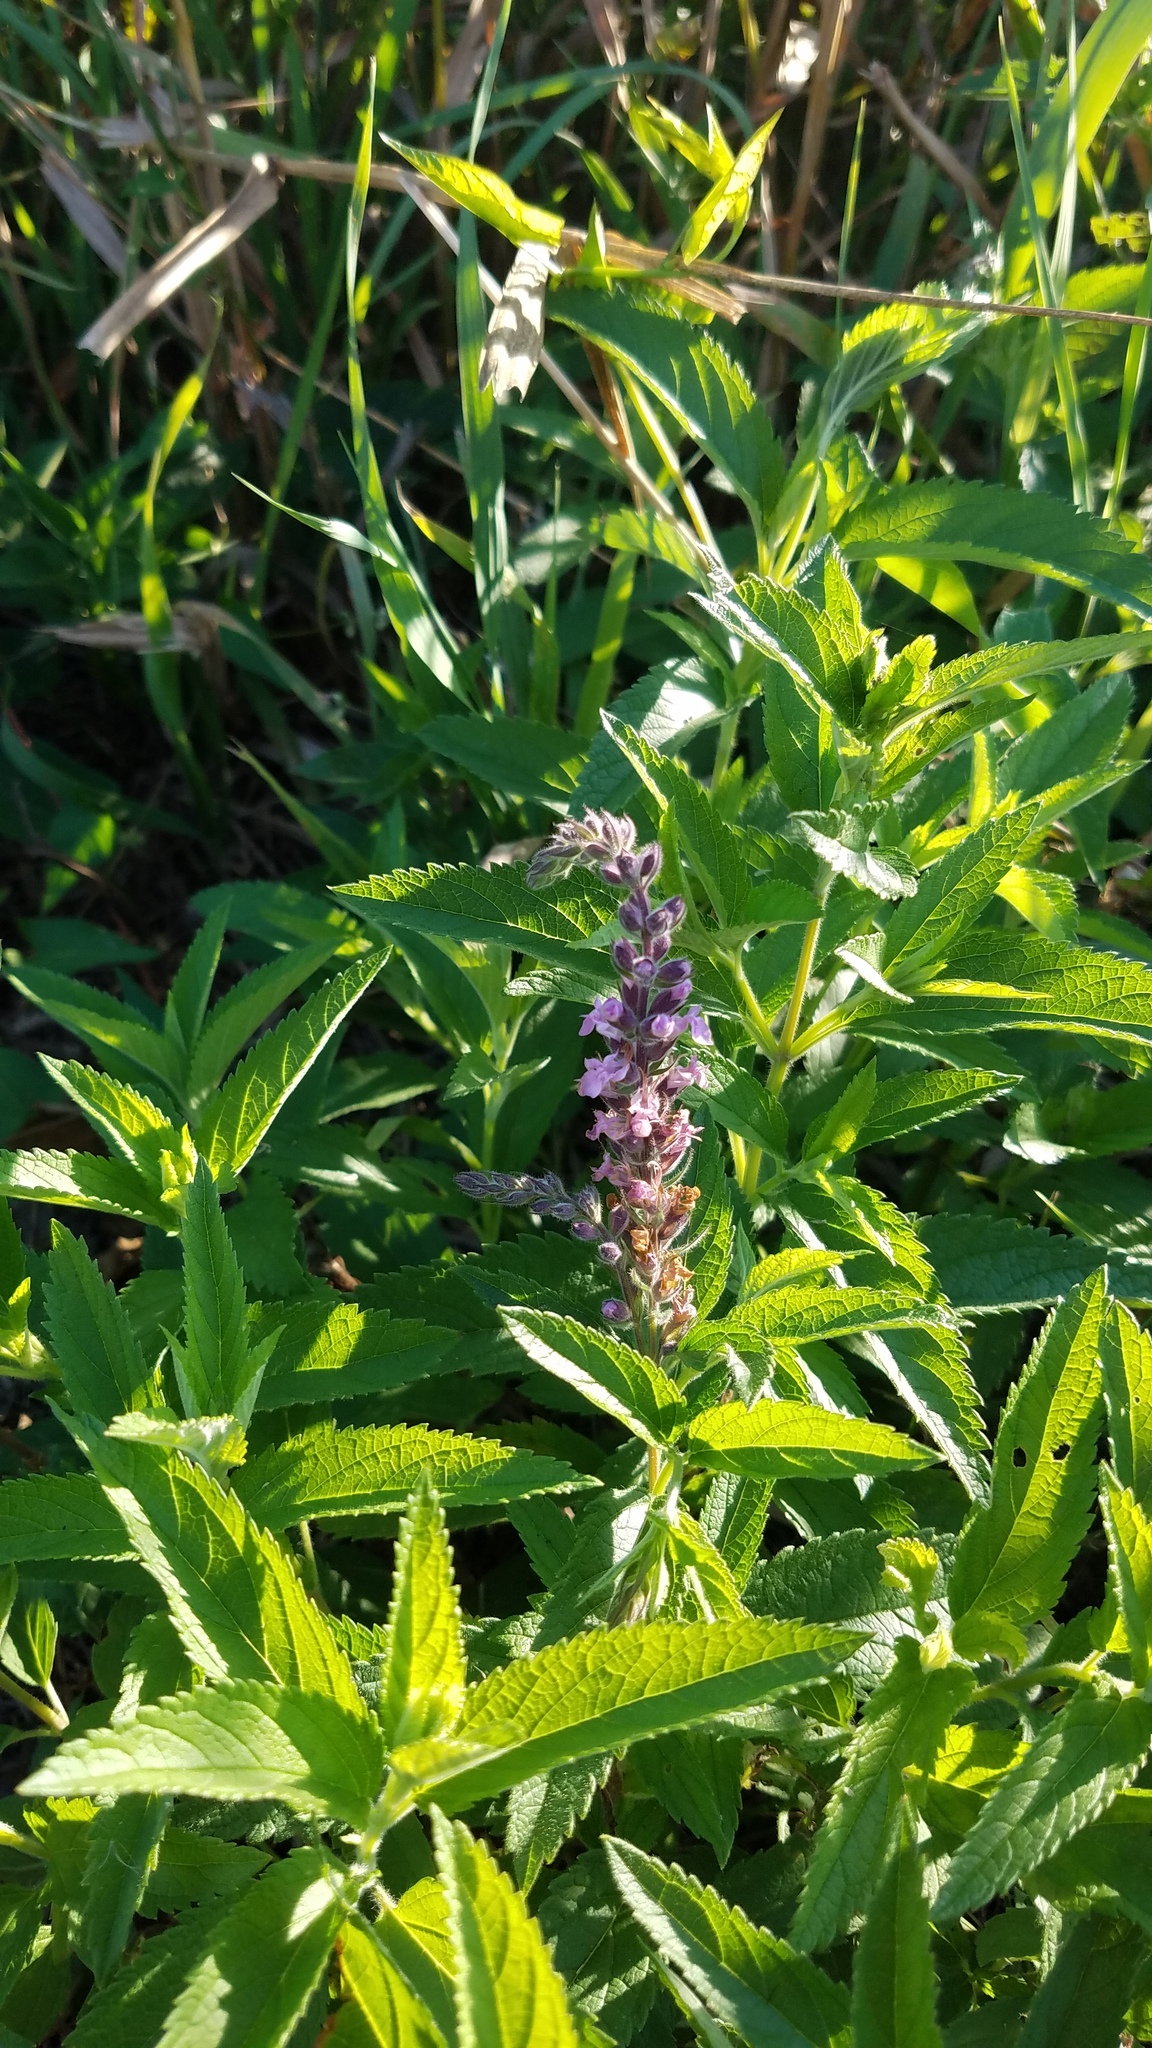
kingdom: Plantae
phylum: Tracheophyta
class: Magnoliopsida
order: Lamiales
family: Lamiaceae
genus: Teucrium
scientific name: Teucrium canadense
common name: American germander
